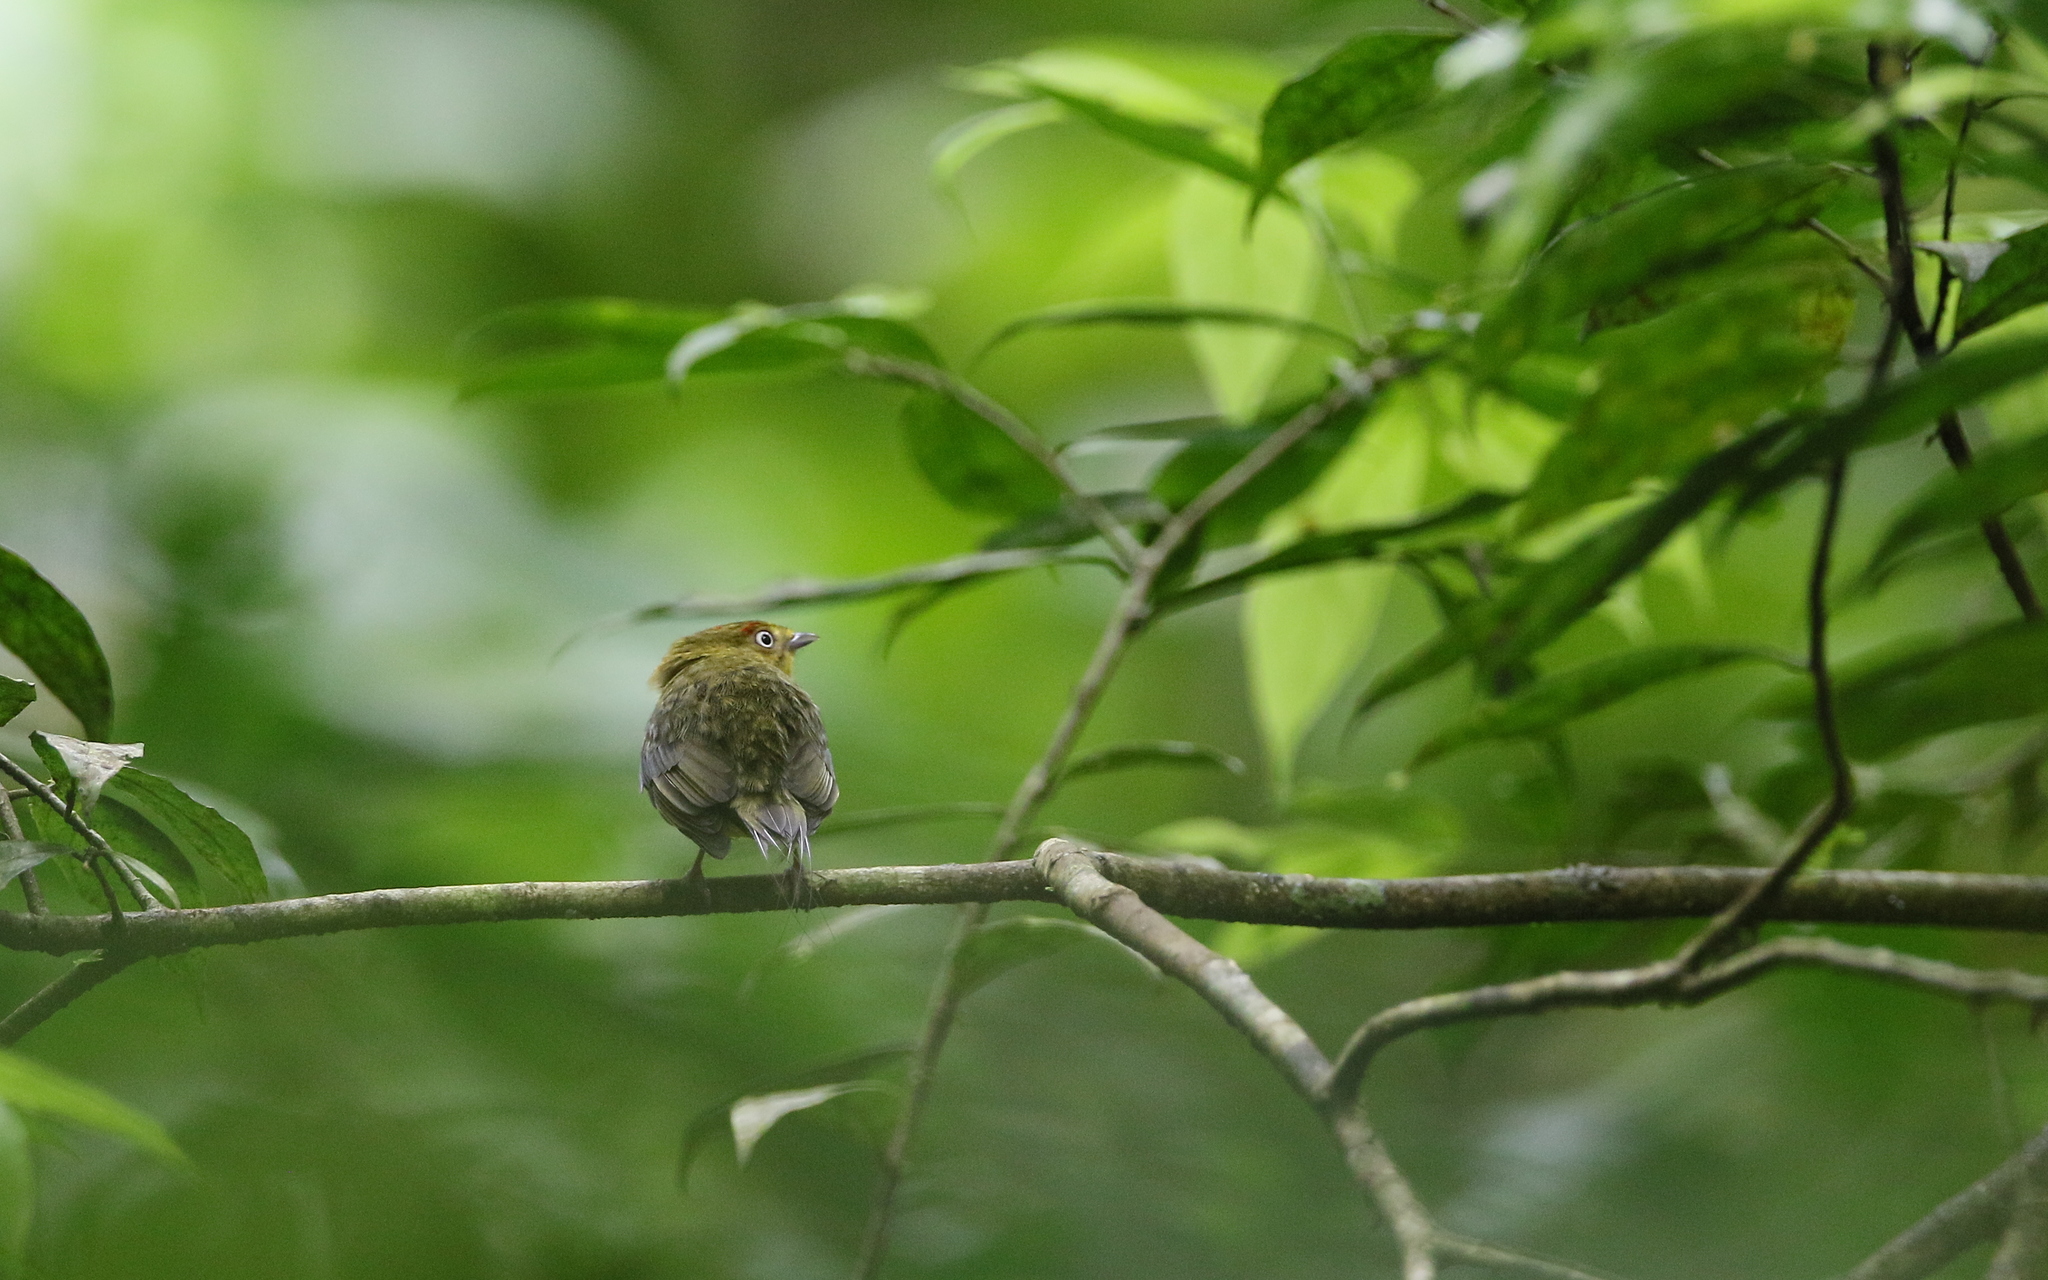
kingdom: Animalia
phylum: Chordata
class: Aves
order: Passeriformes
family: Pipridae
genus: Pipra
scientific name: Pipra filicauda
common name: Wire-tailed manakin
